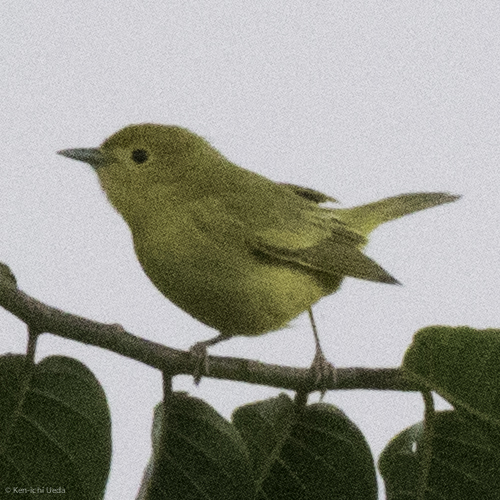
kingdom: Animalia
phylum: Chordata
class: Aves
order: Passeriformes
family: Parulidae
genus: Setophaga
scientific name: Setophaga petechia
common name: Yellow warbler
